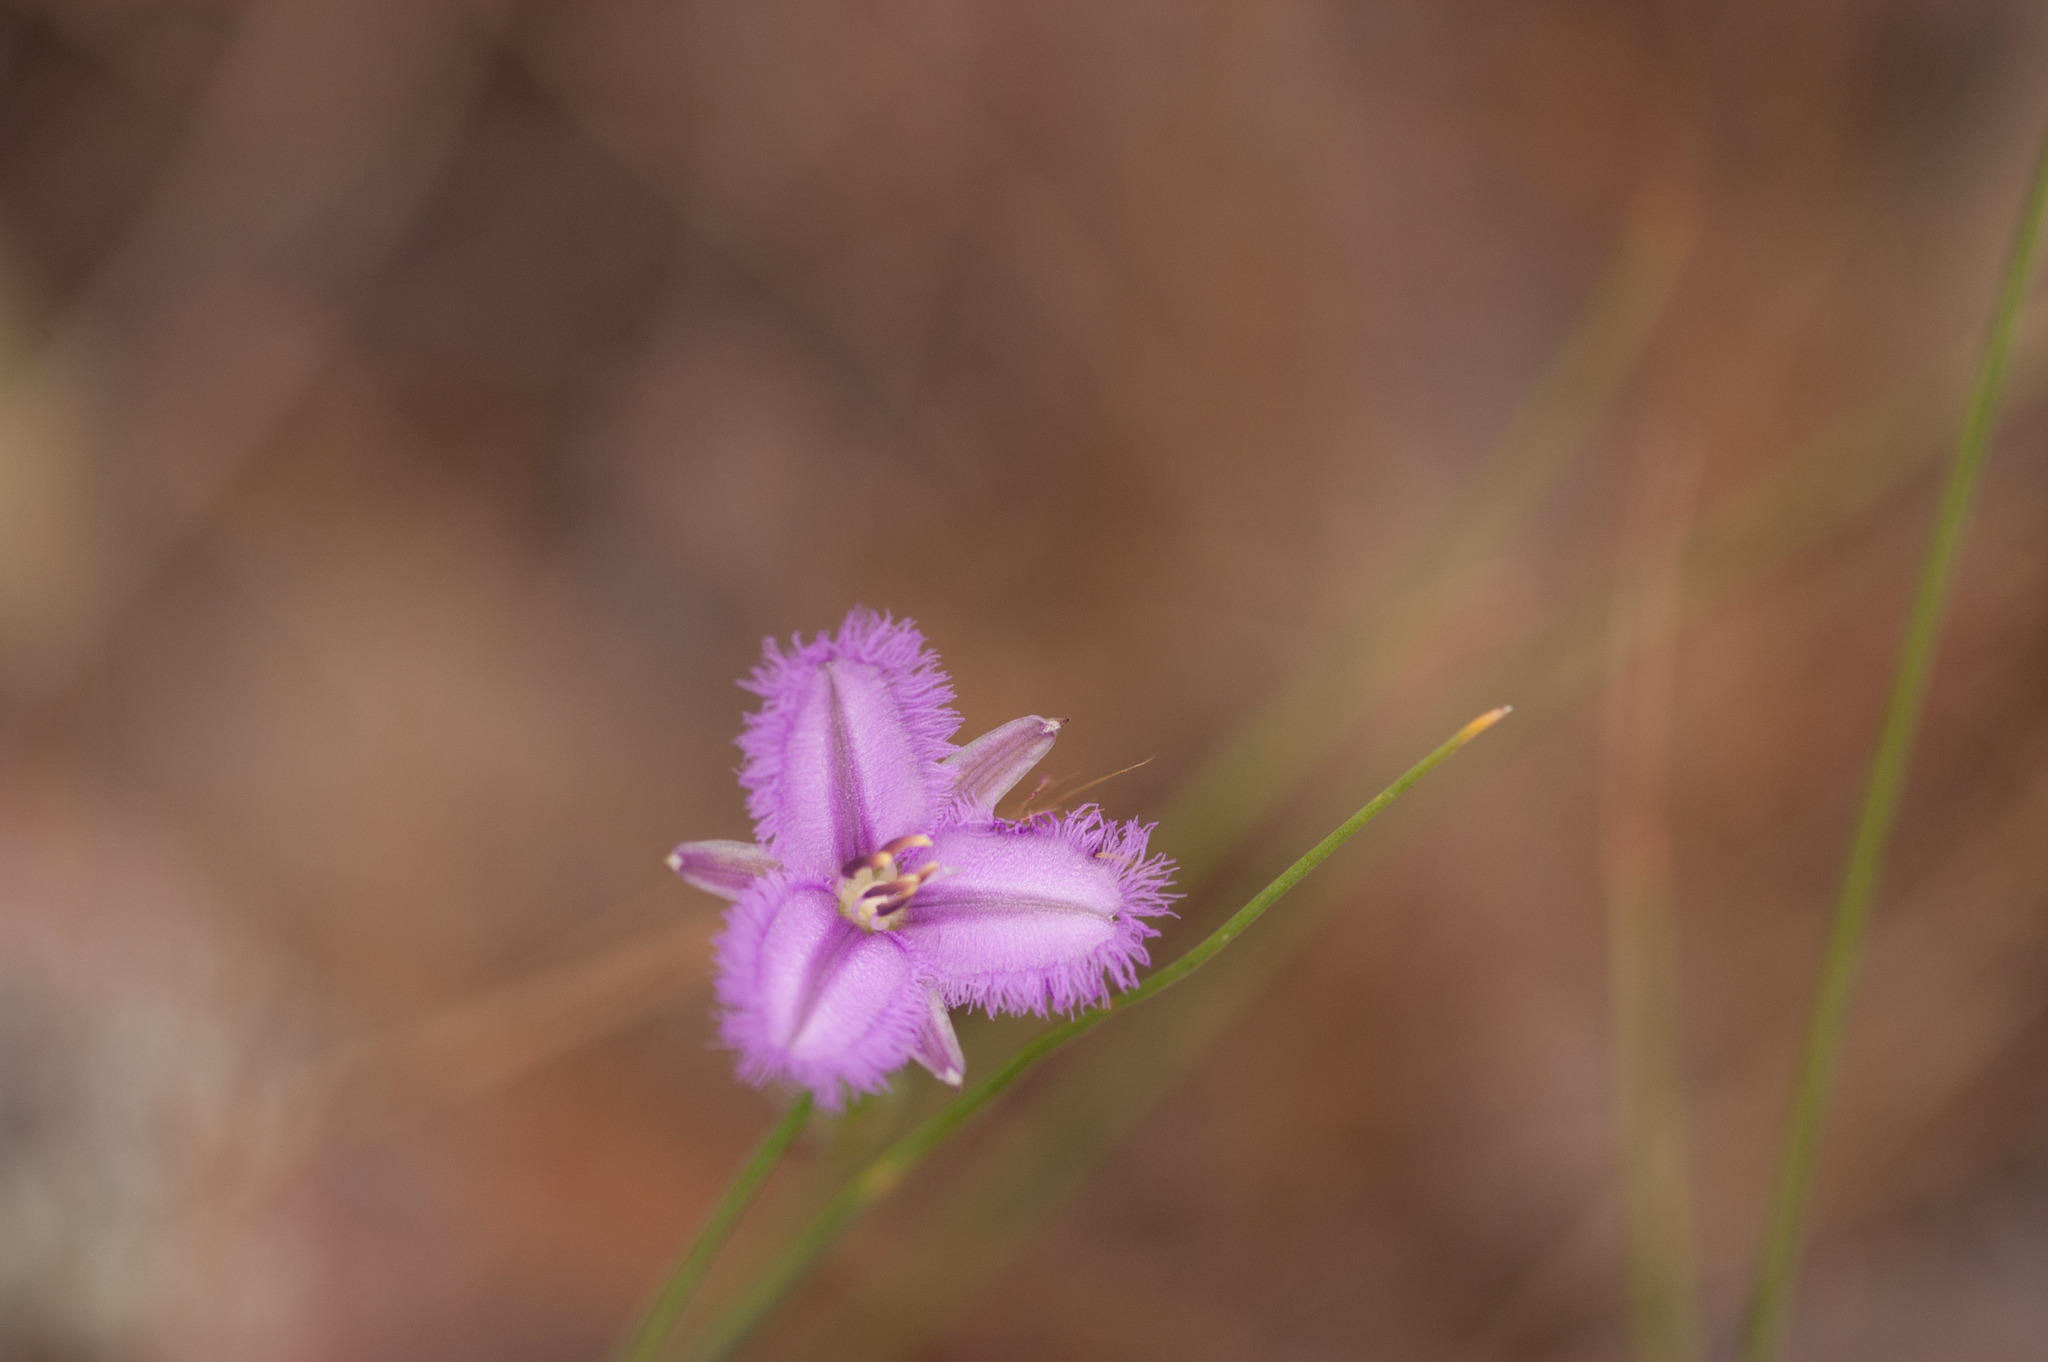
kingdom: Plantae
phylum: Tracheophyta
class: Liliopsida
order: Asparagales
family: Asparagaceae
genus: Thysanotus
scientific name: Thysanotus
